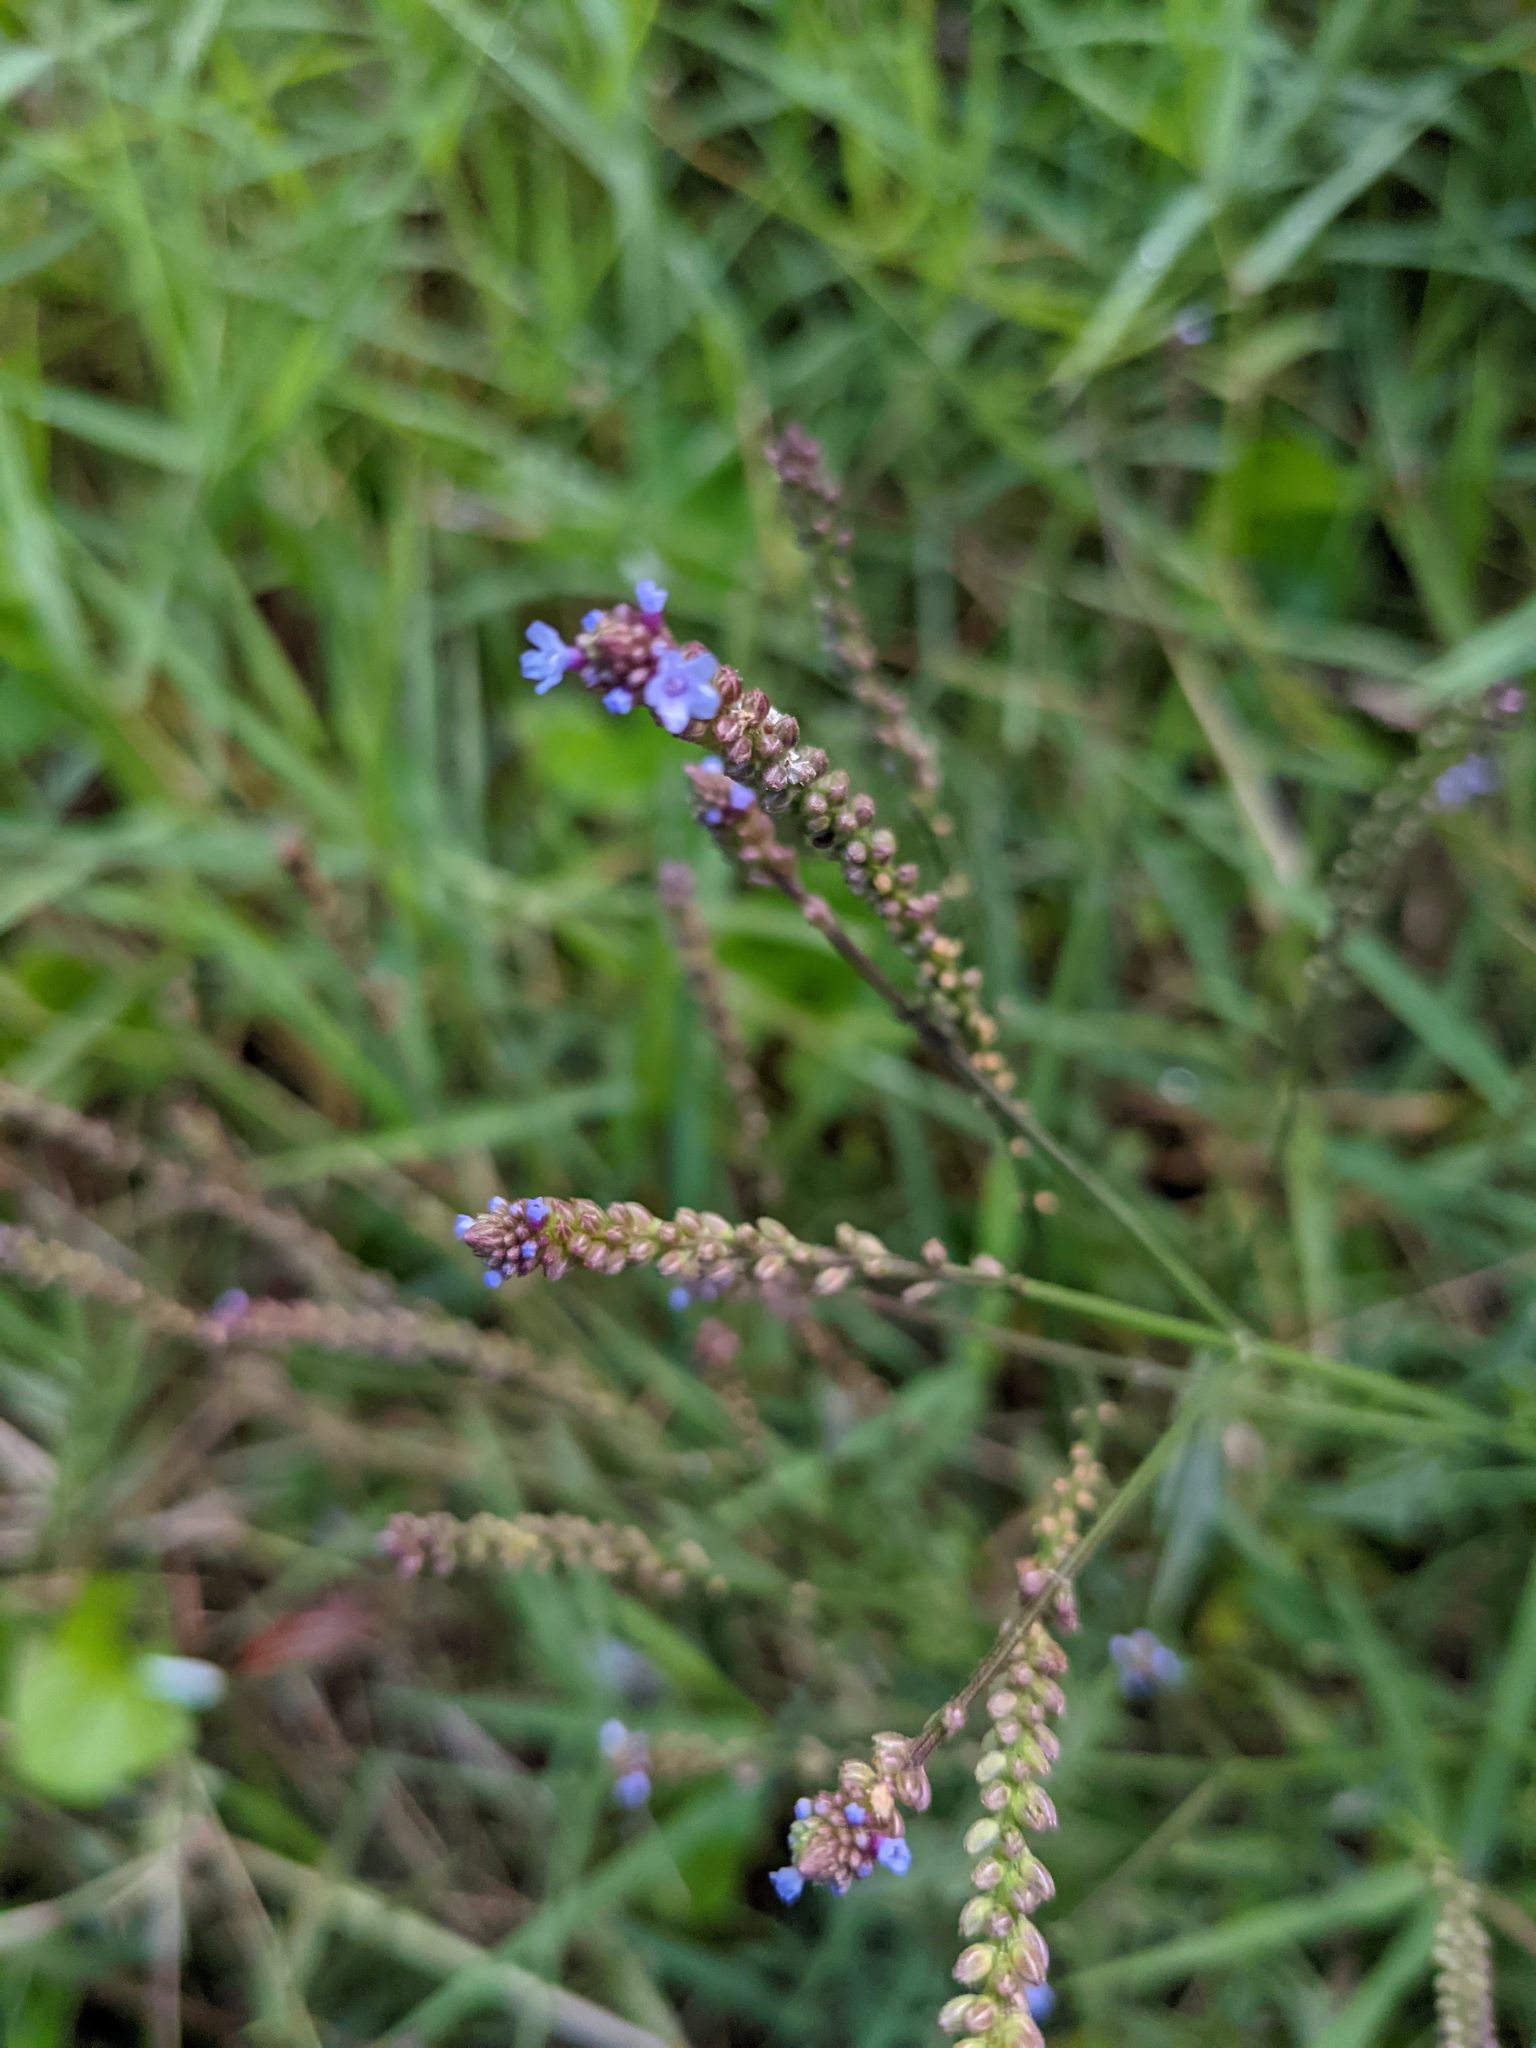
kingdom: Plantae
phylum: Tracheophyta
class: Magnoliopsida
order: Lamiales
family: Verbenaceae
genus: Verbena
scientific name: Verbena litoralis
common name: Seashore vervain
